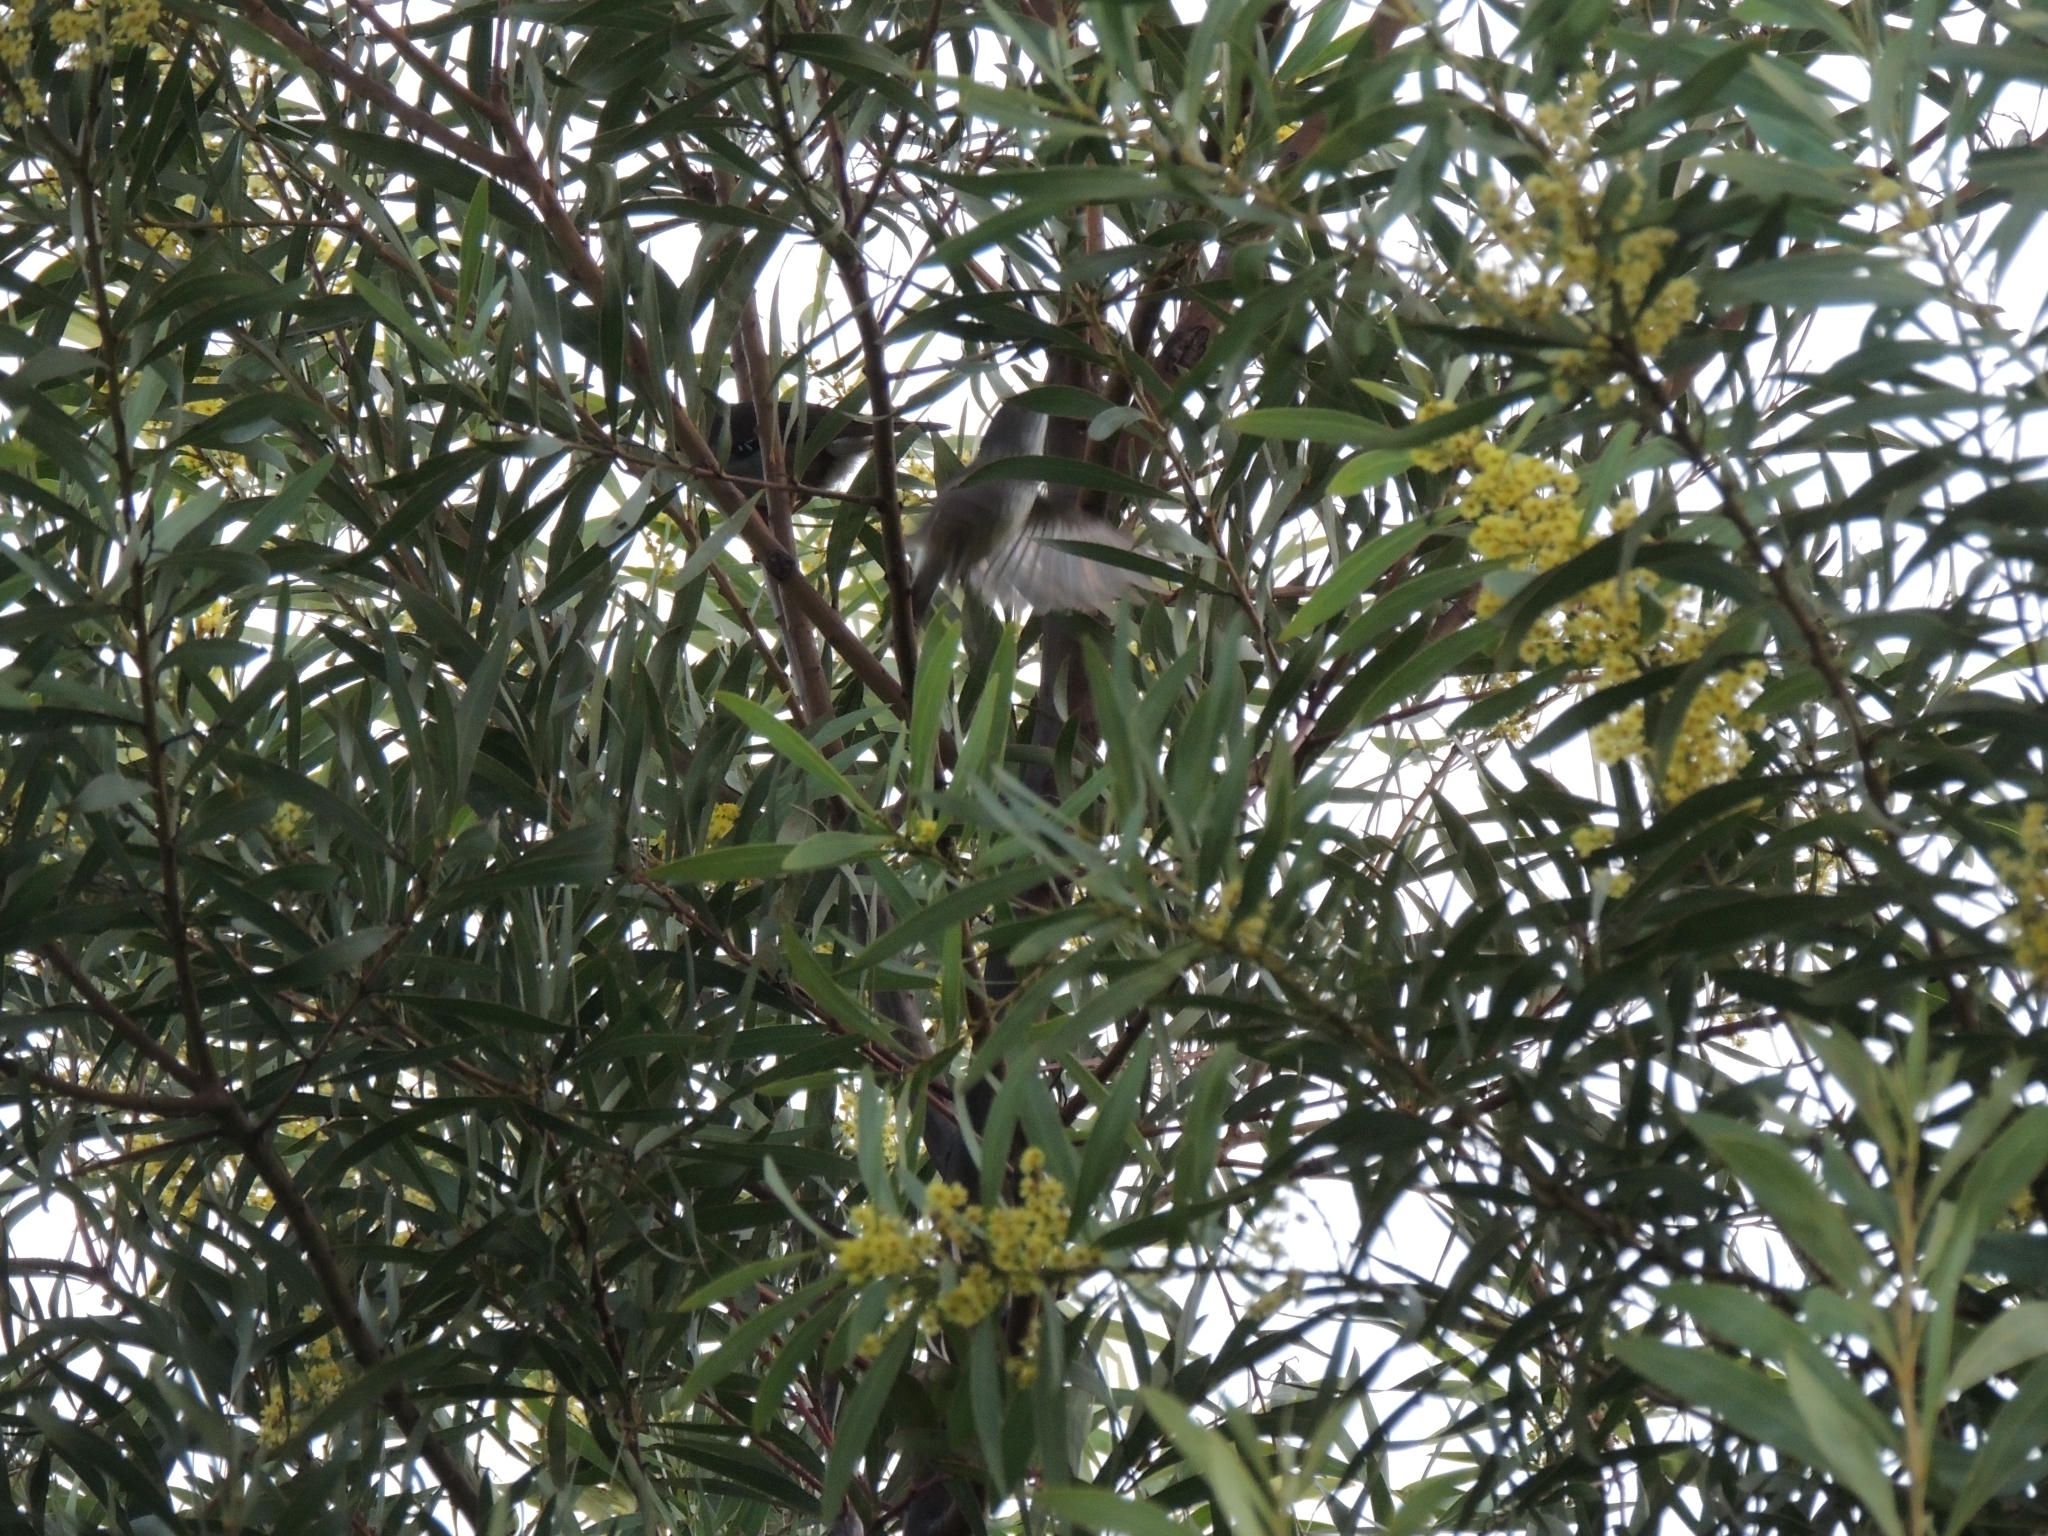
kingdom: Animalia
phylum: Chordata
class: Aves
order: Passeriformes
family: Acanthizidae
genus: Sericornis
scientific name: Sericornis frontalis
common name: White-browed scrubwren
